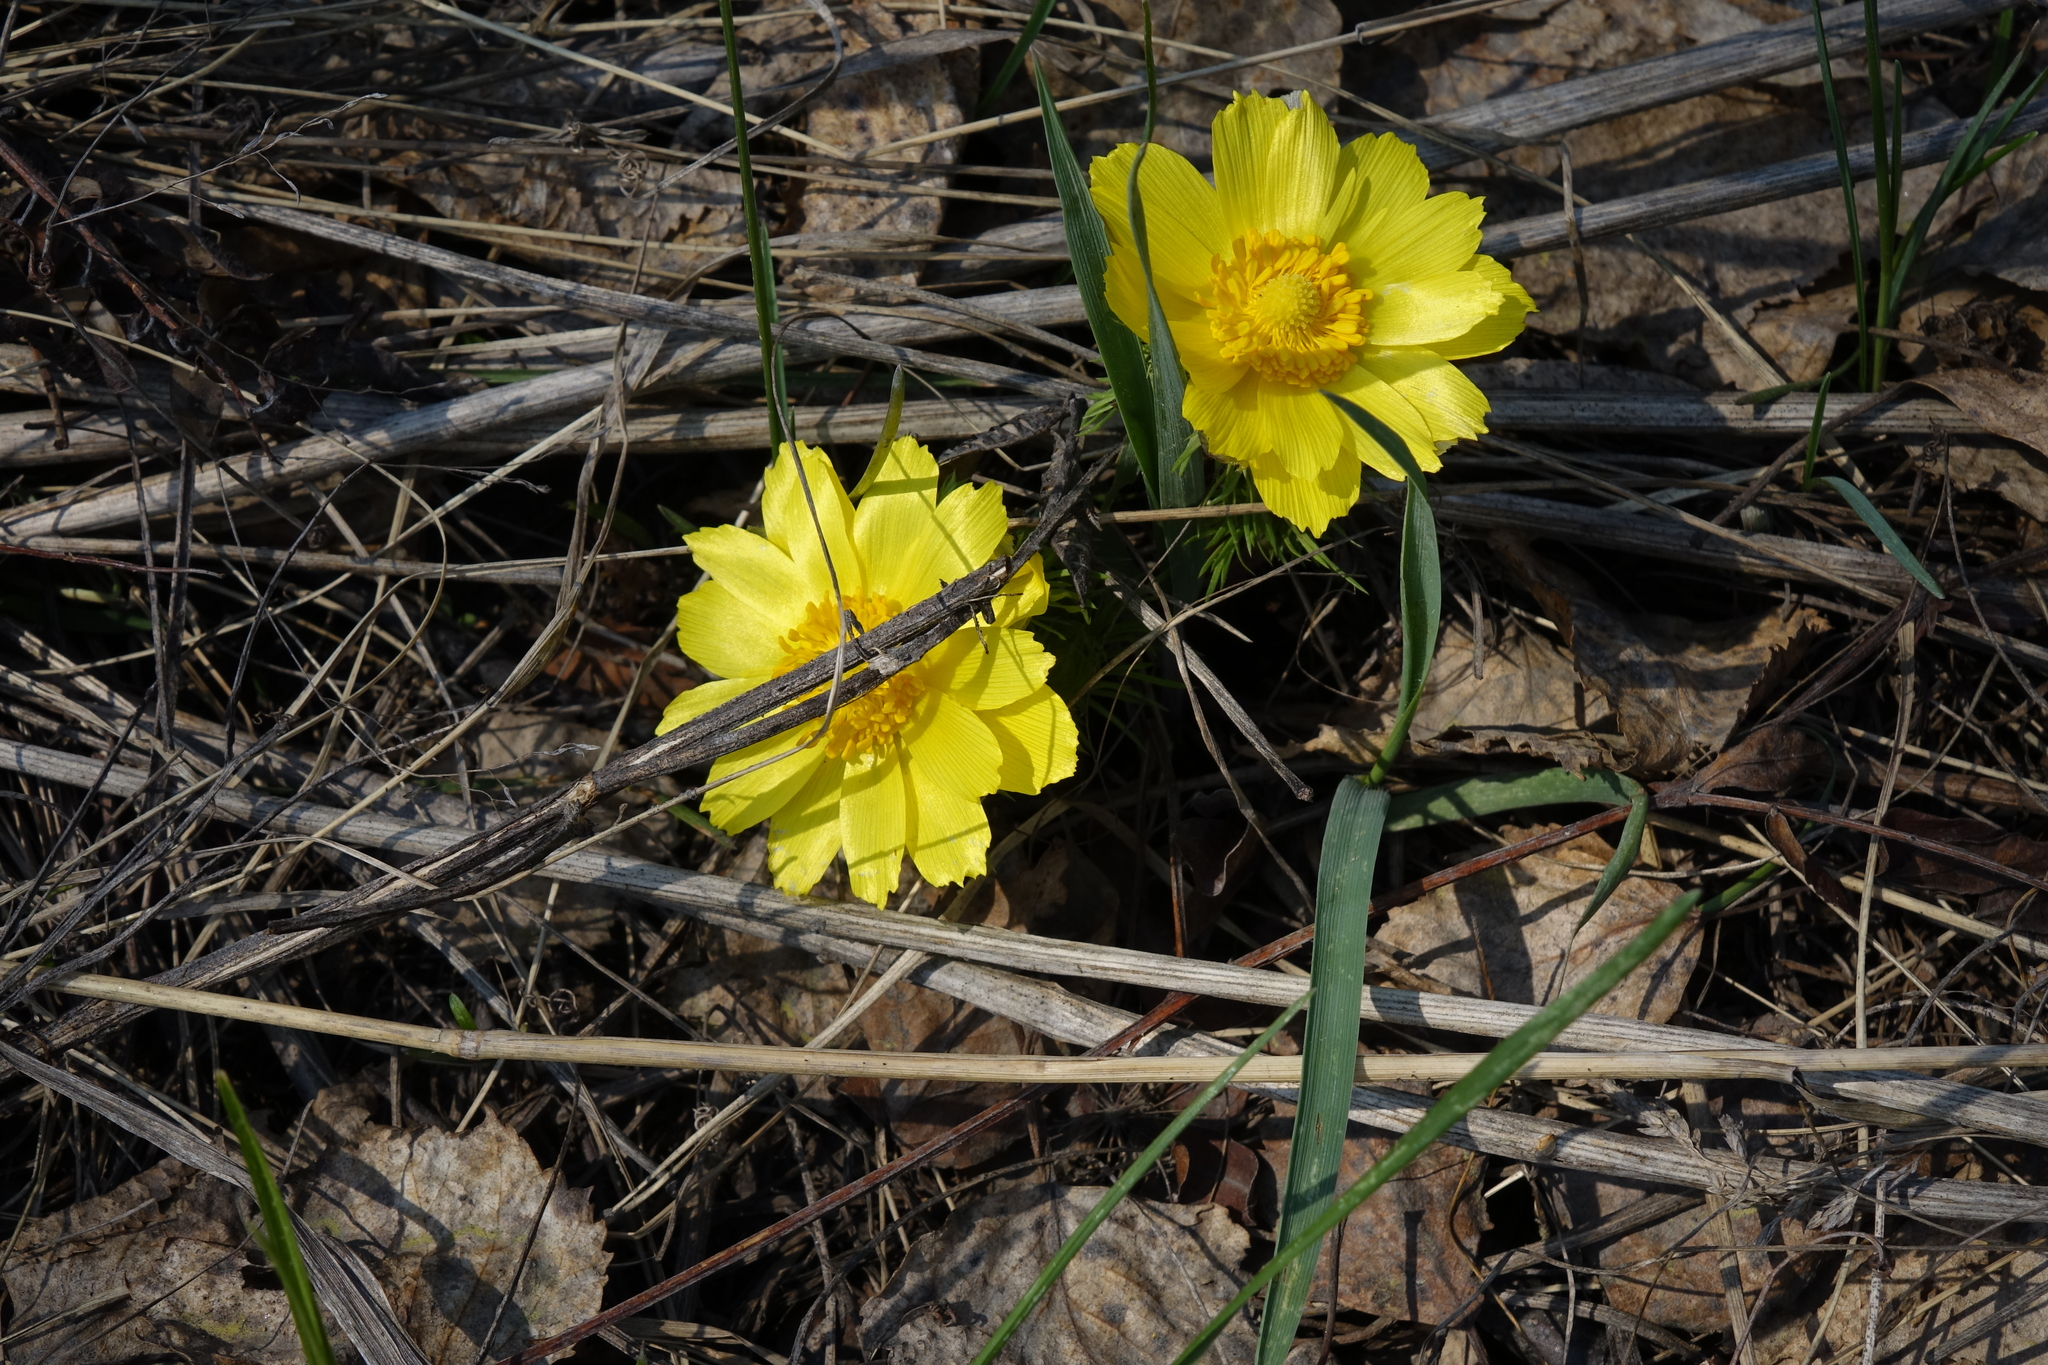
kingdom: Plantae
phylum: Tracheophyta
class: Magnoliopsida
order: Ranunculales
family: Ranunculaceae
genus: Adonis
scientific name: Adonis vernalis
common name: Yellow pheasants-eye
